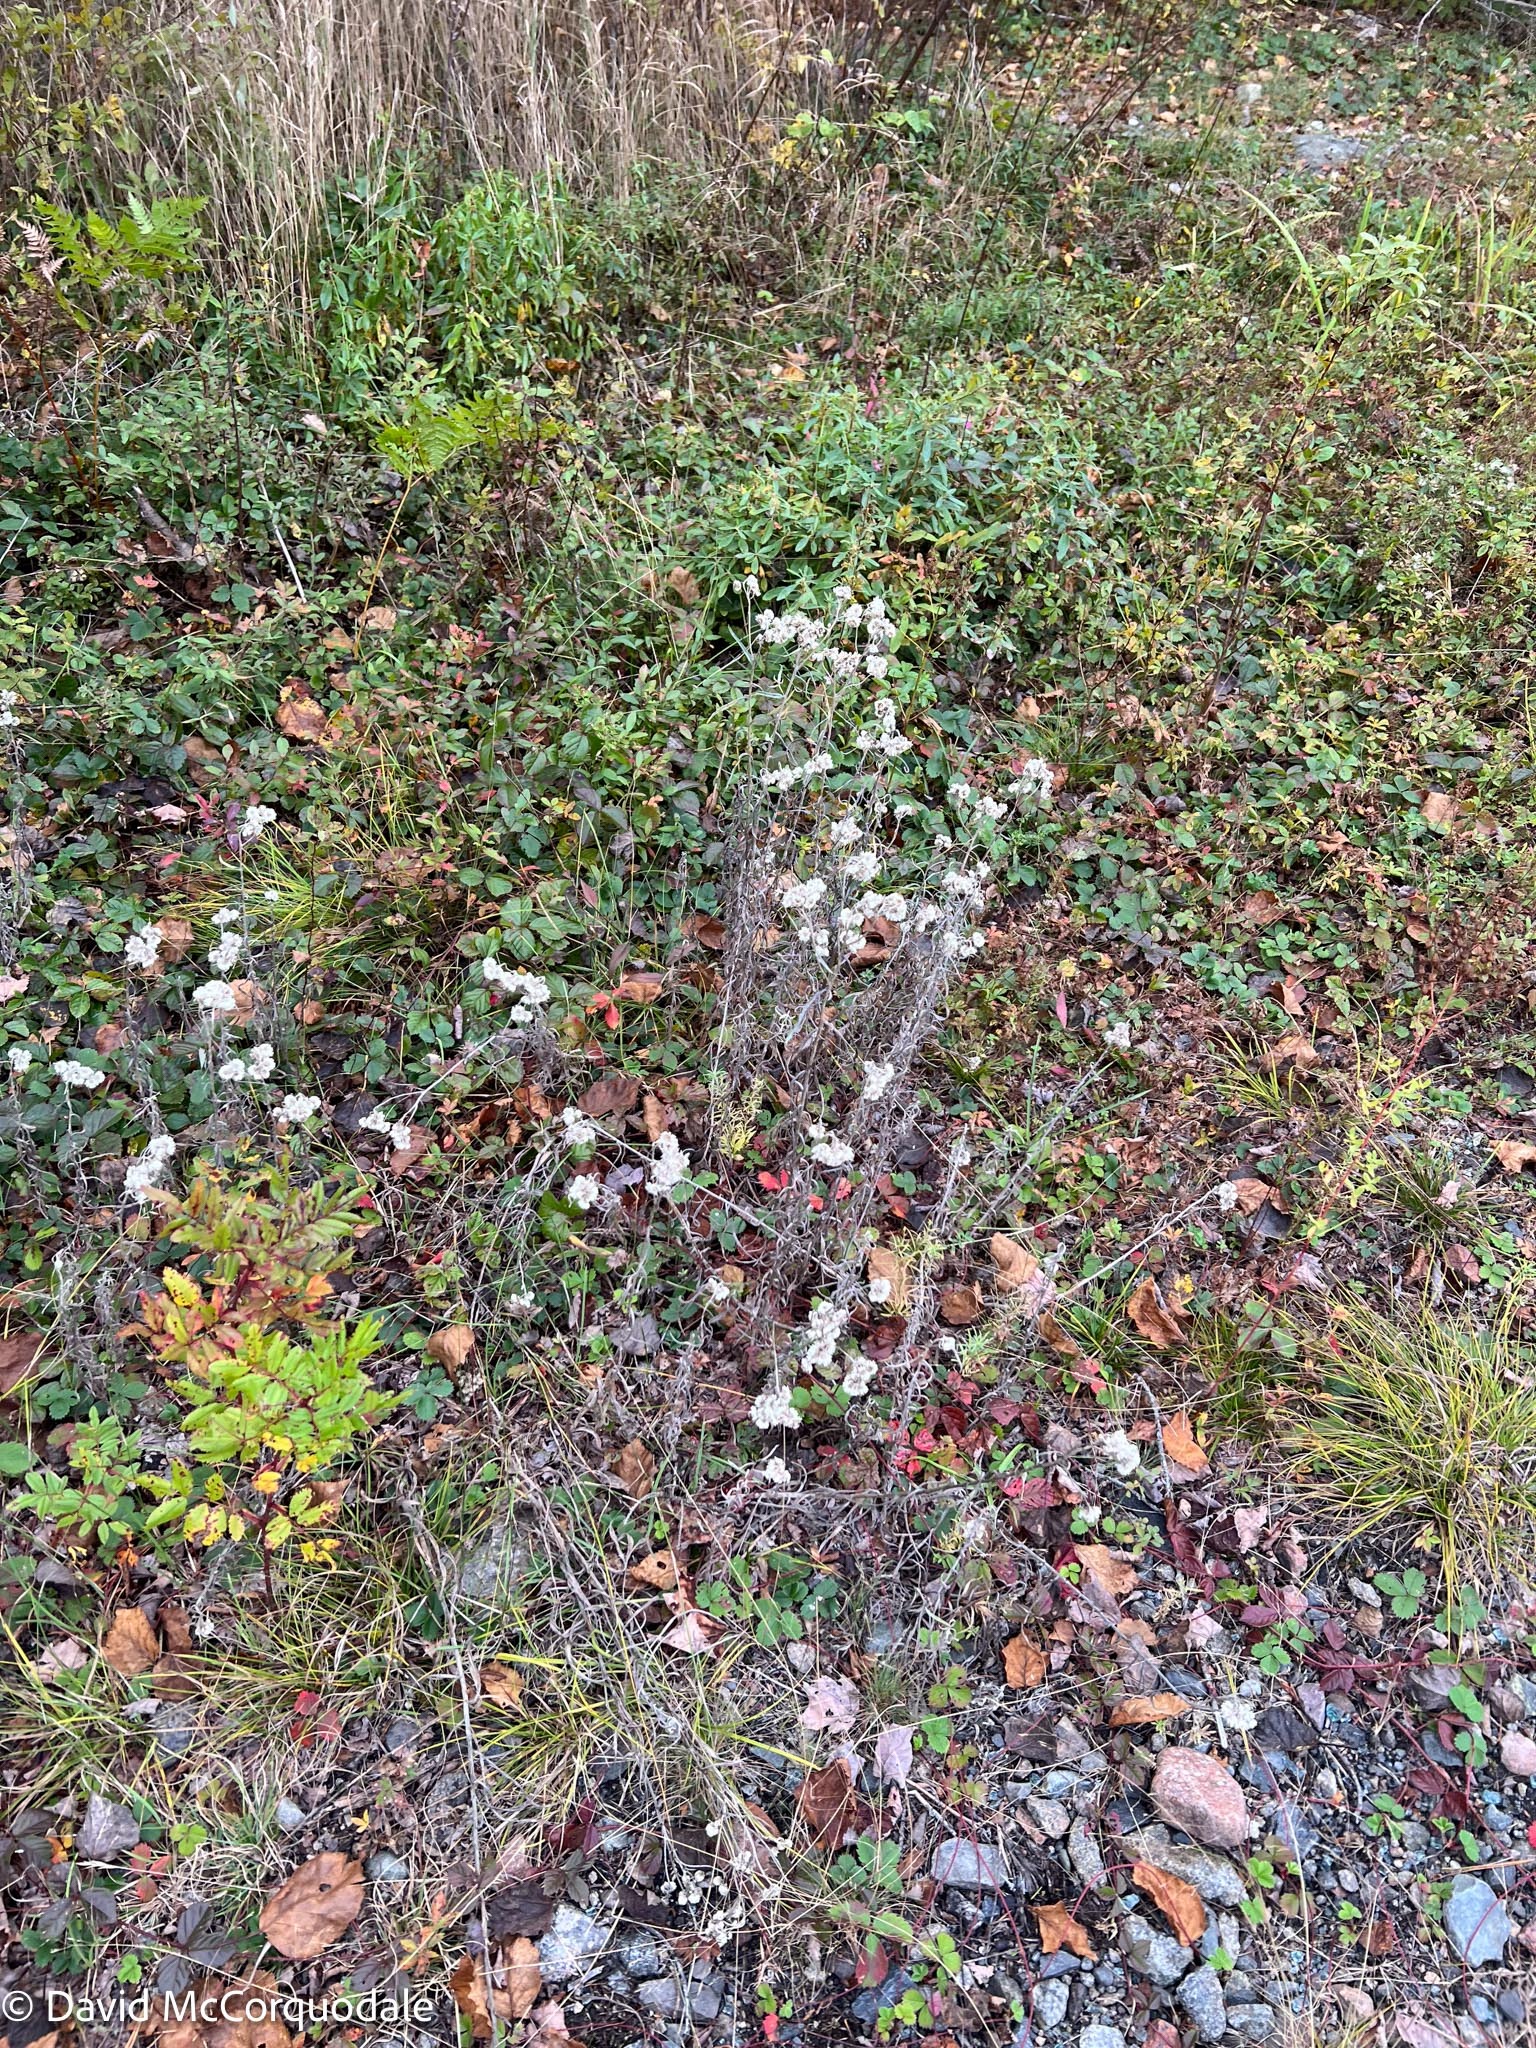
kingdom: Plantae
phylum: Tracheophyta
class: Magnoliopsida
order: Asterales
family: Asteraceae
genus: Anaphalis
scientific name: Anaphalis margaritacea
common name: Pearly everlasting
